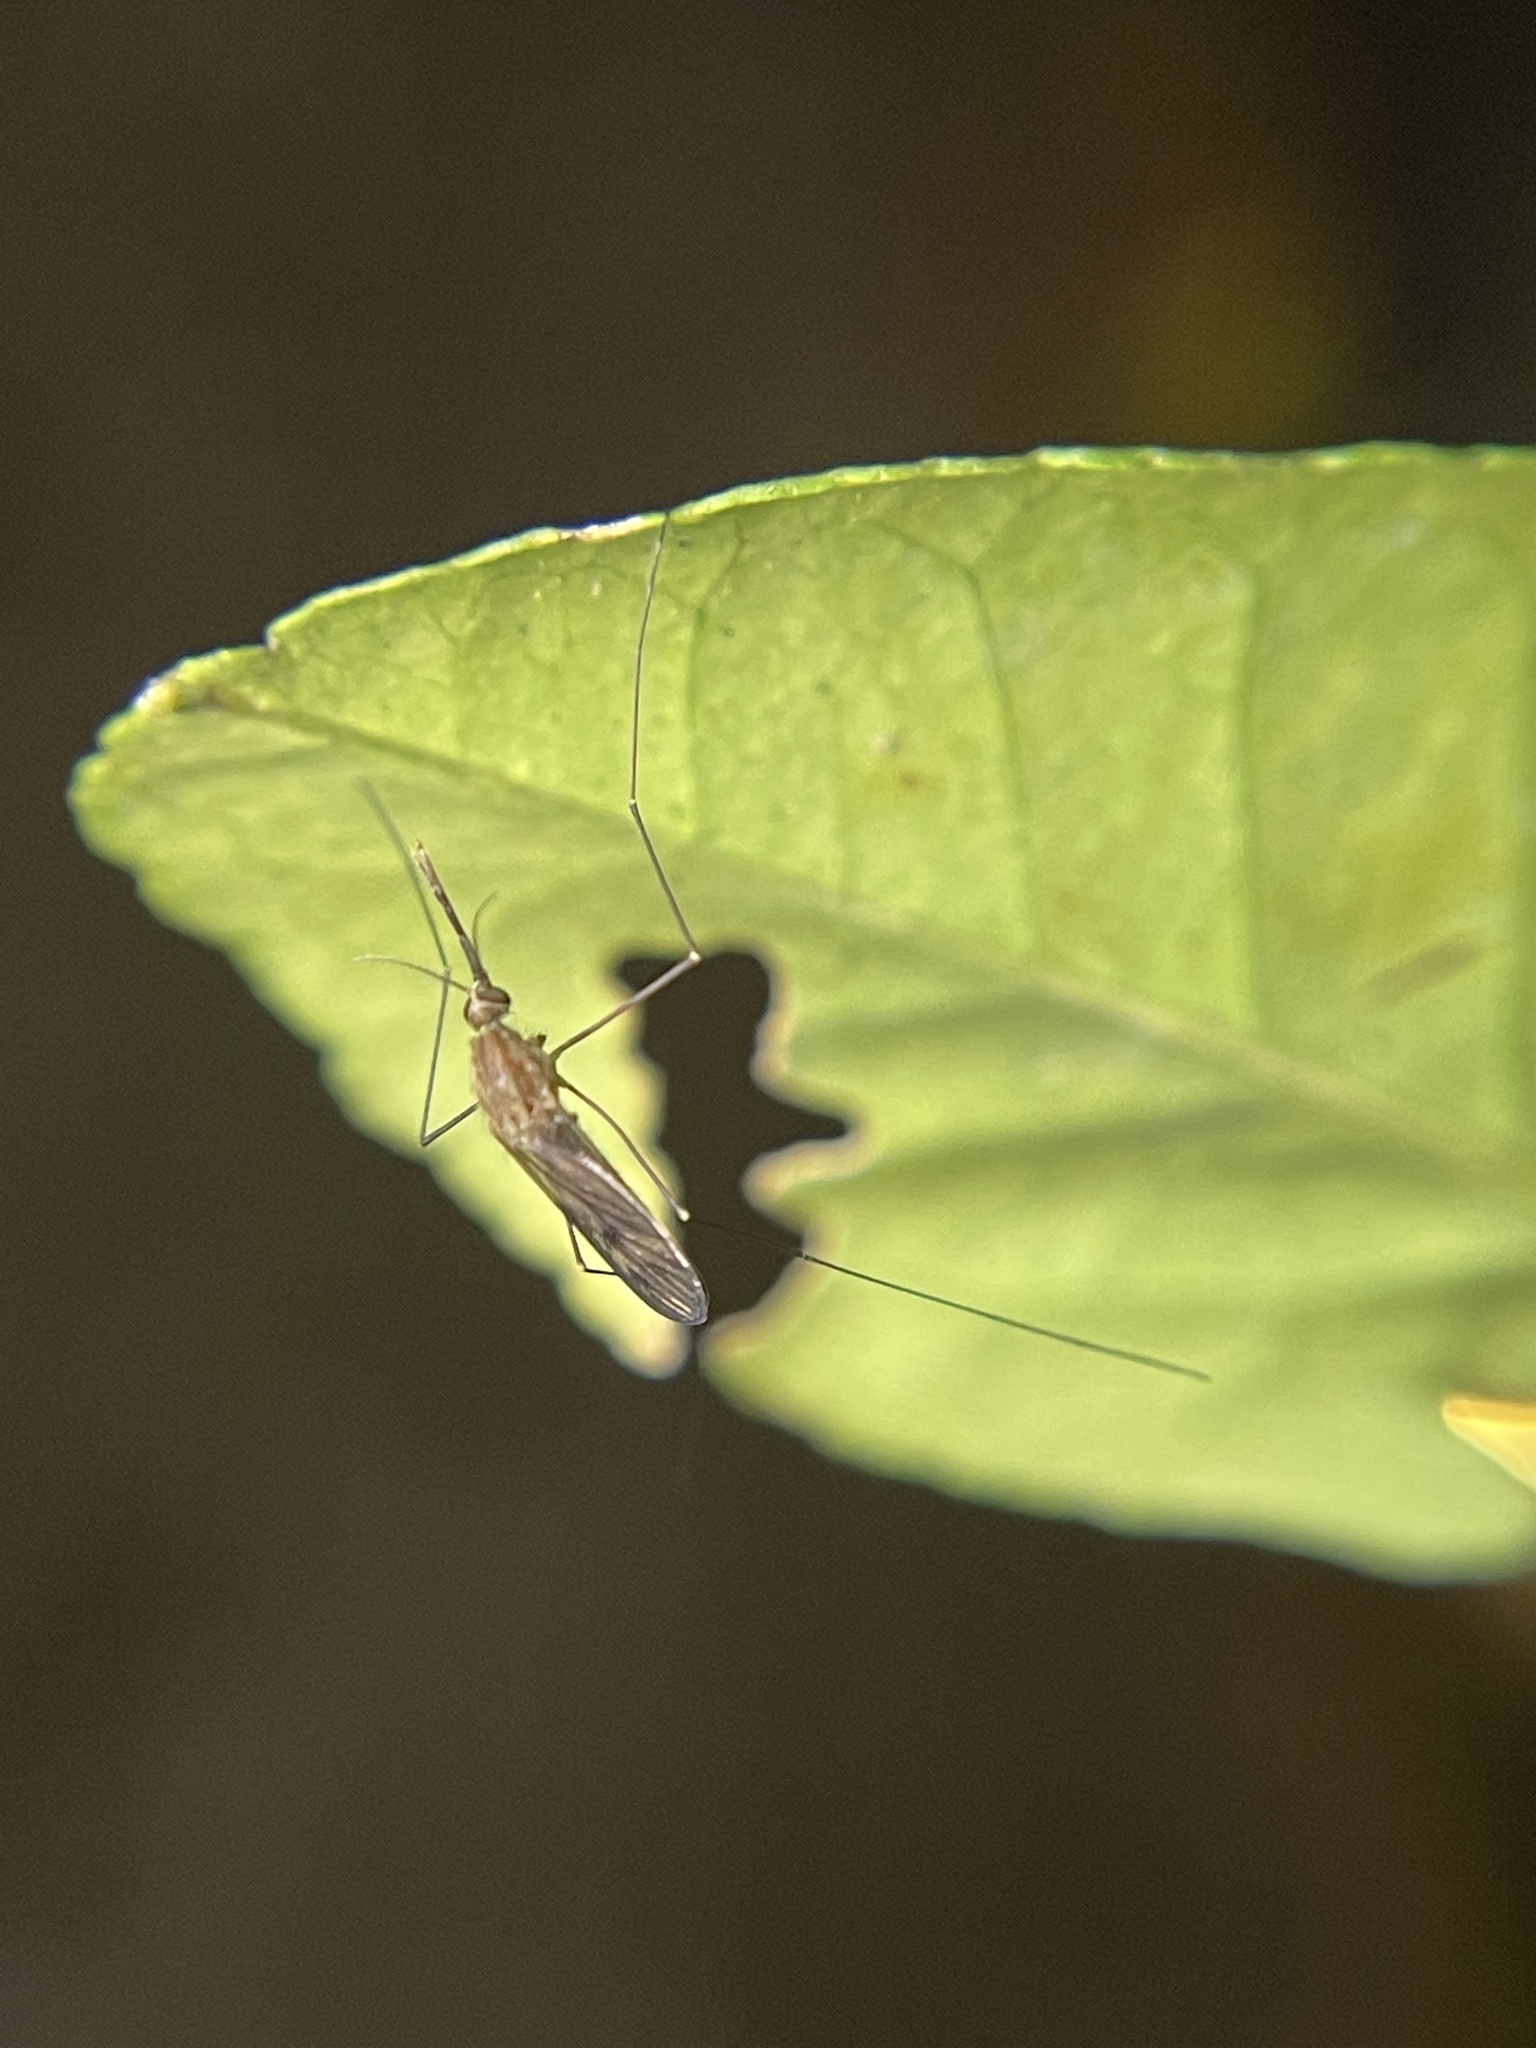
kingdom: Animalia
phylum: Arthropoda
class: Insecta
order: Diptera
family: Culicidae
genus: Anopheles
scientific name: Anopheles
